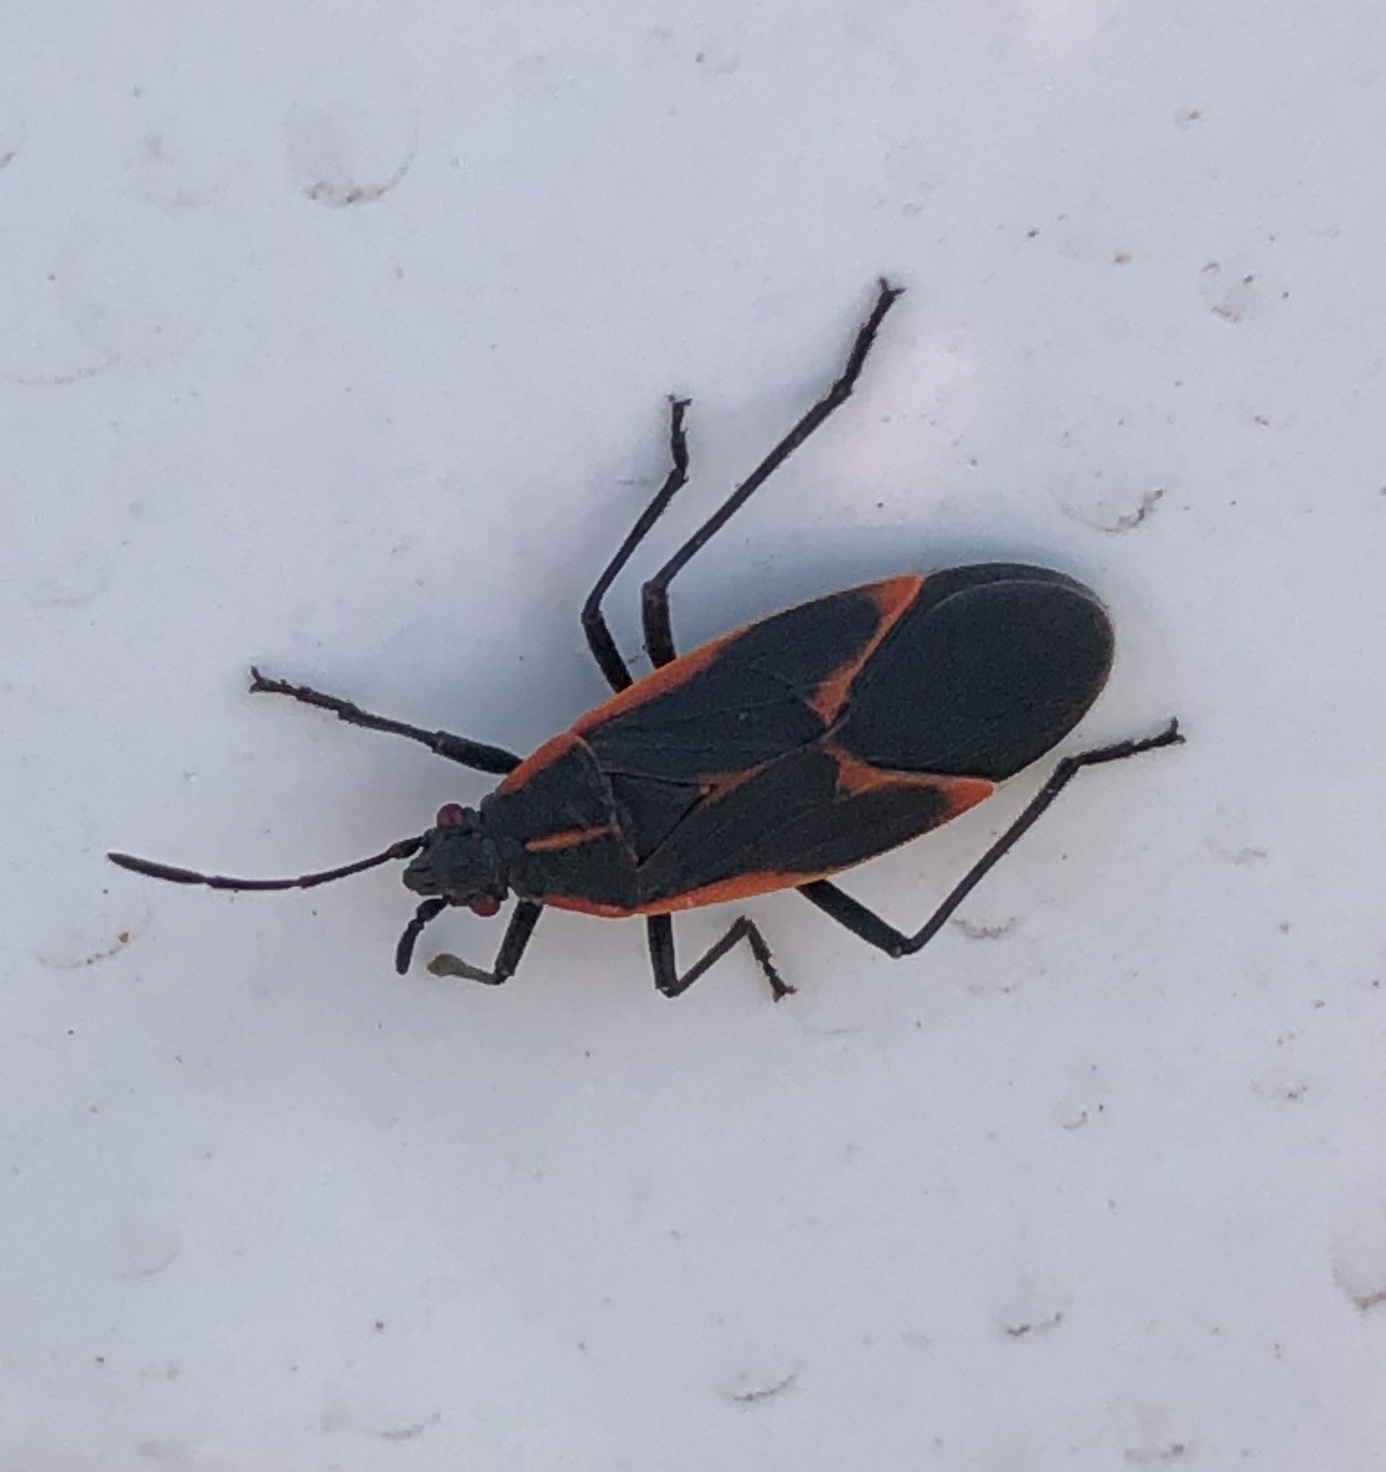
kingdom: Animalia
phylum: Arthropoda
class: Insecta
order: Hemiptera
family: Rhopalidae
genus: Boisea
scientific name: Boisea trivittata
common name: Boxelder bug
